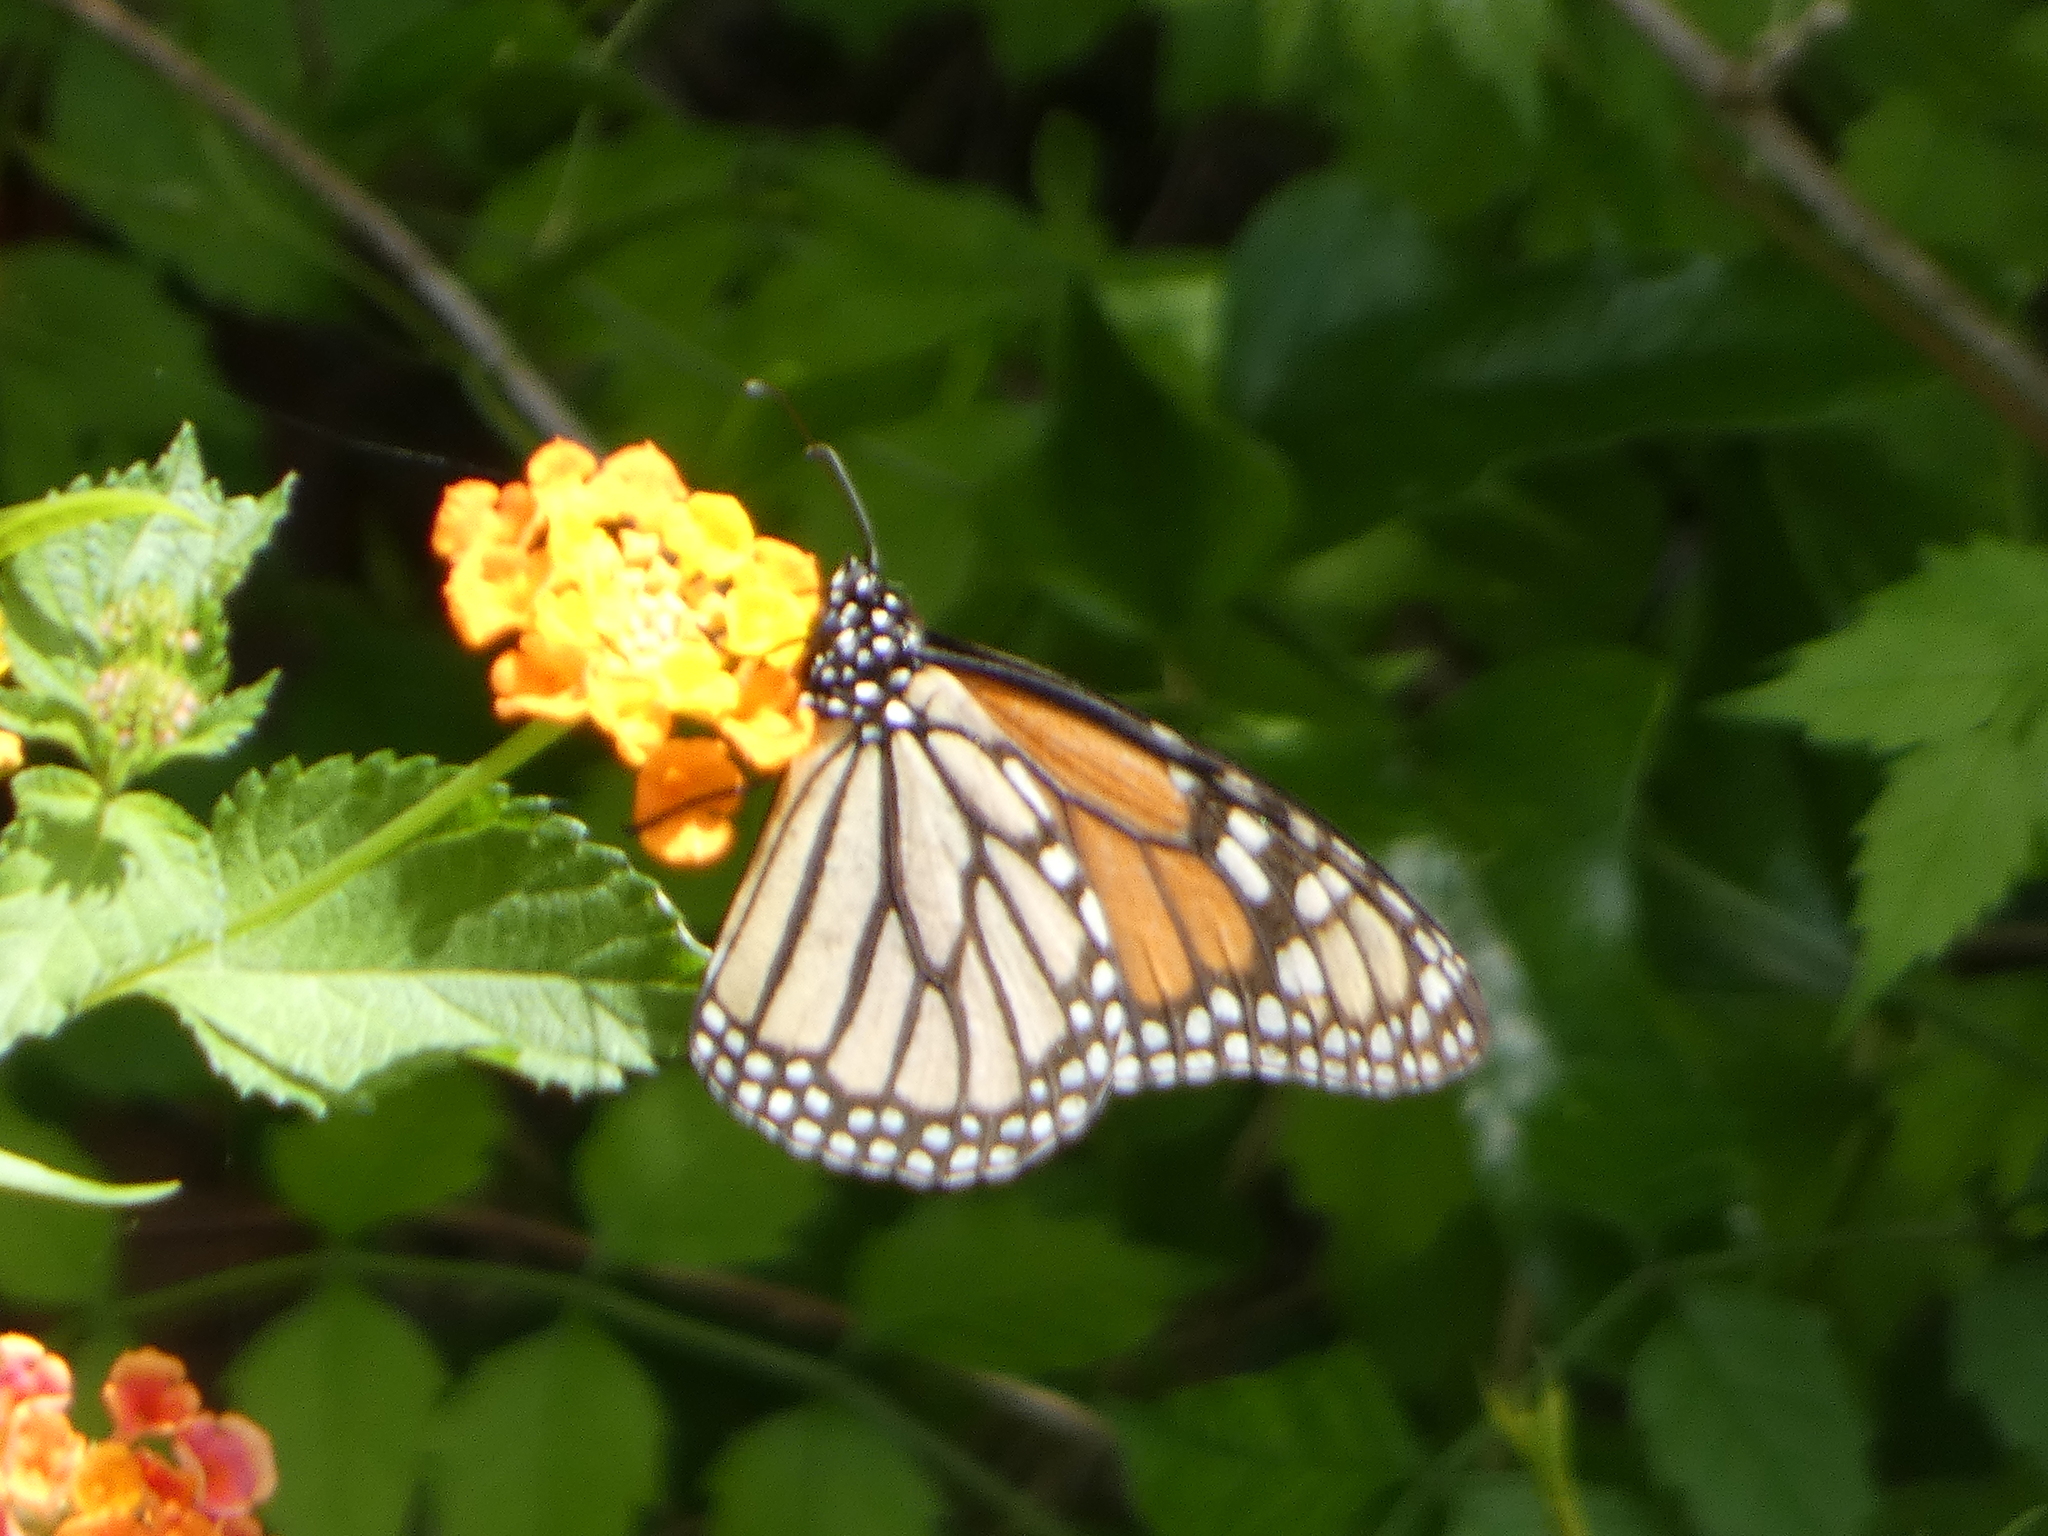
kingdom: Animalia
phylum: Arthropoda
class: Insecta
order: Lepidoptera
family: Nymphalidae
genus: Danaus
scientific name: Danaus plexippus
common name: Monarch
